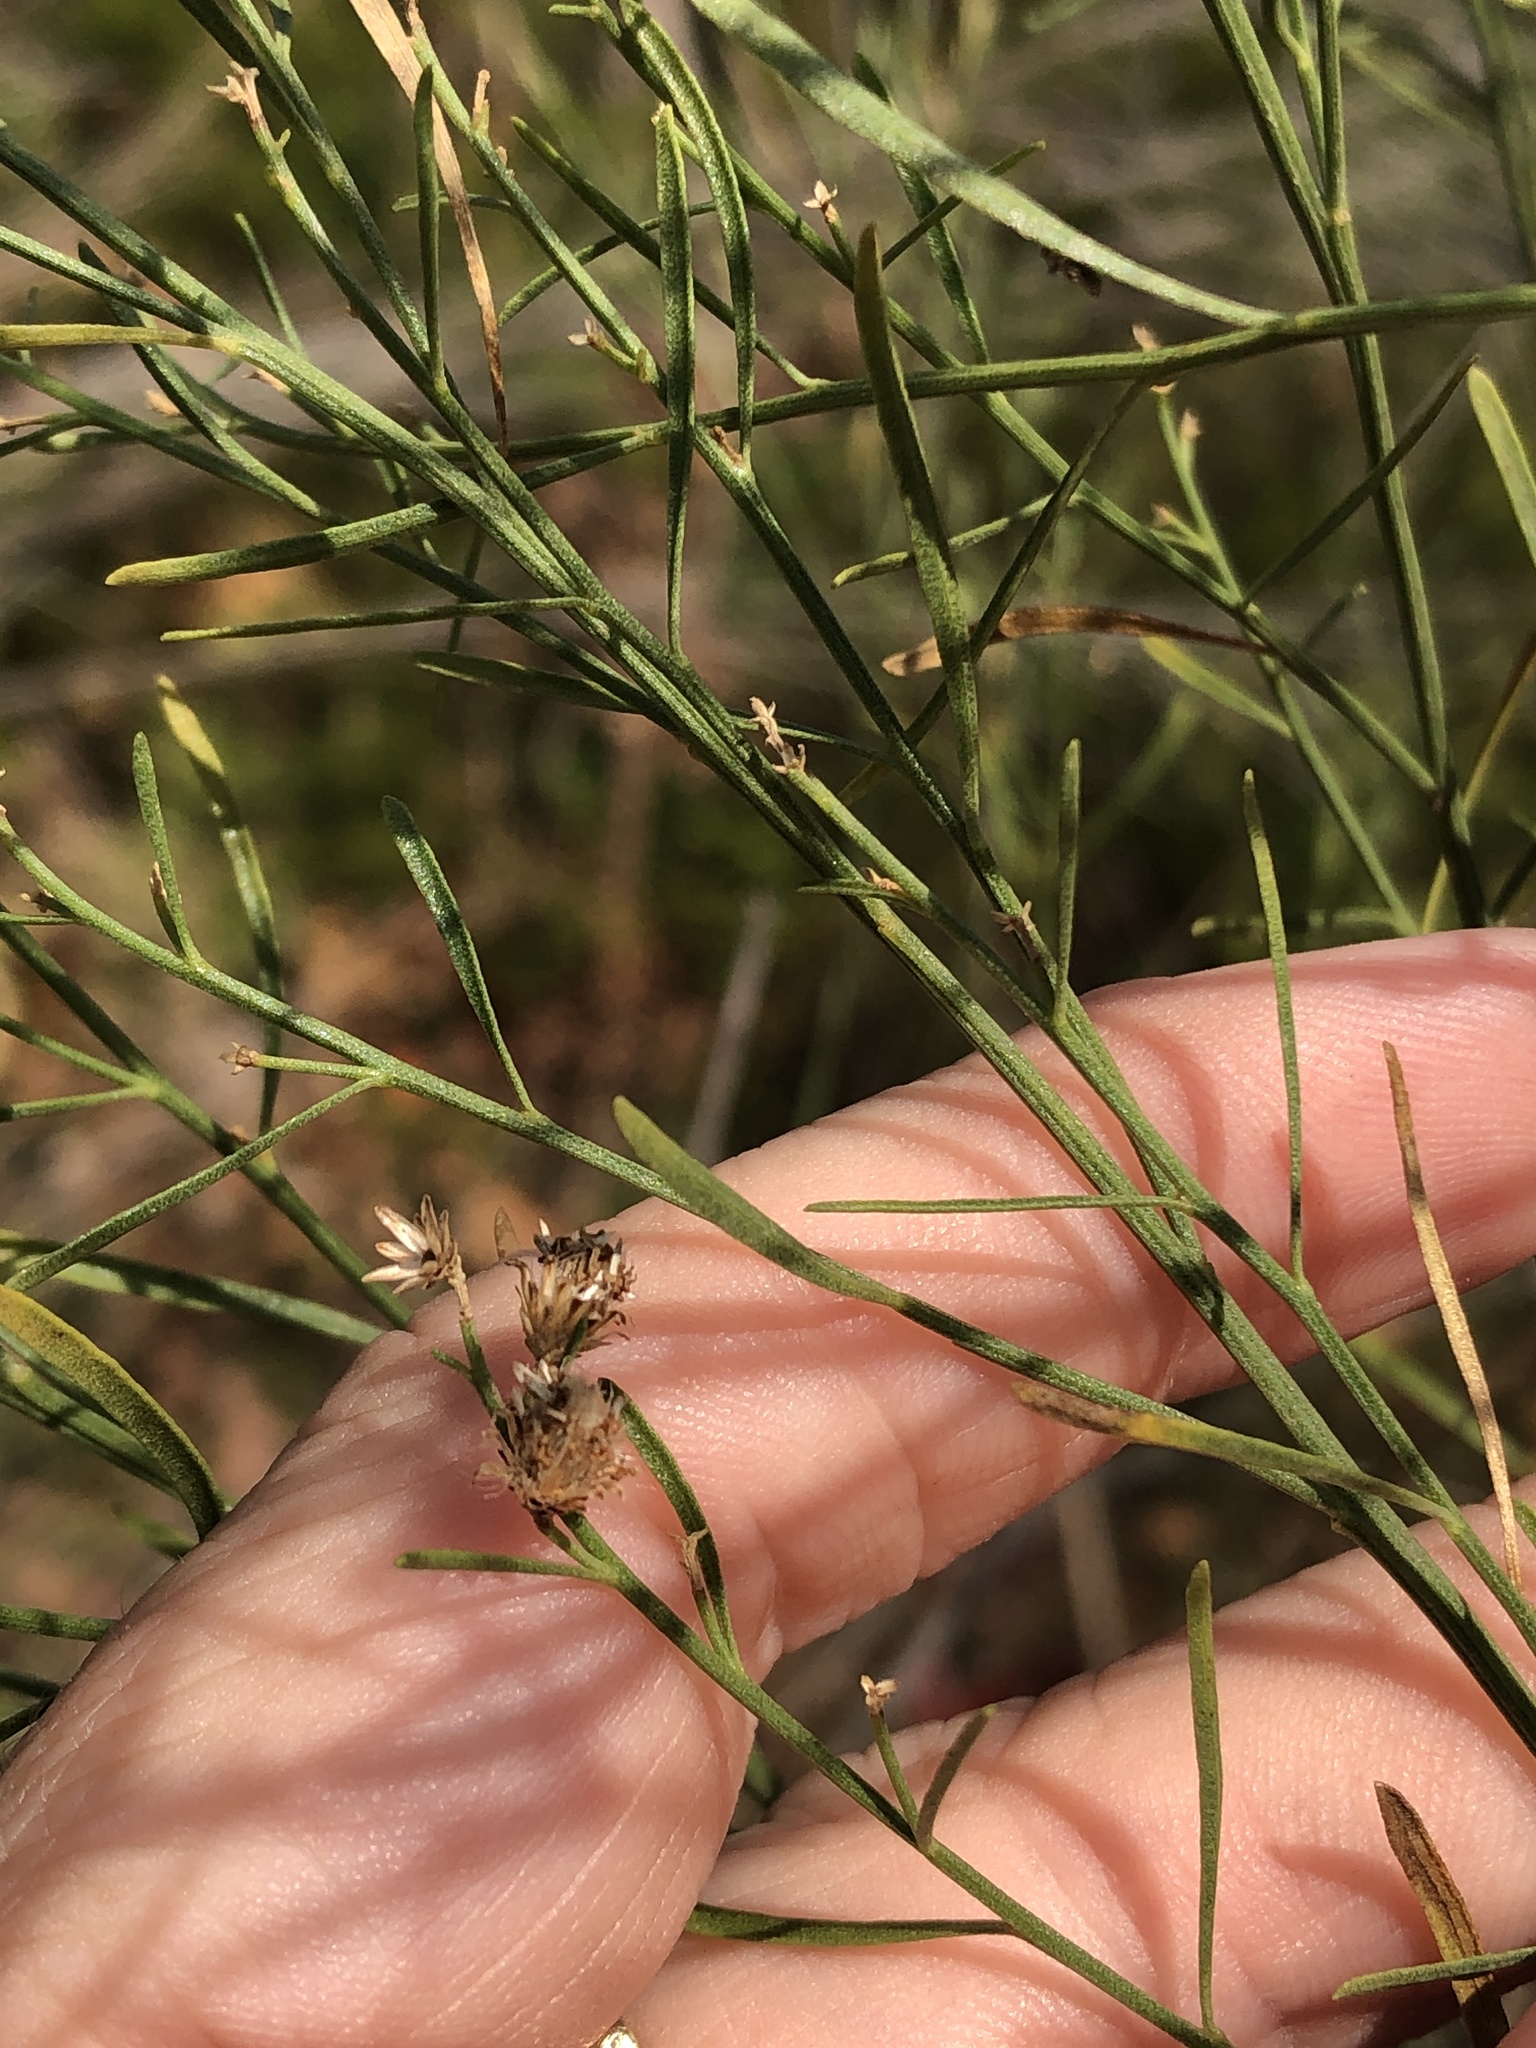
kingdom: Plantae
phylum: Tracheophyta
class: Magnoliopsida
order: Asterales
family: Asteraceae
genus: Baccharis
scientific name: Baccharis neglecta
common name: Roosevelt-weed
